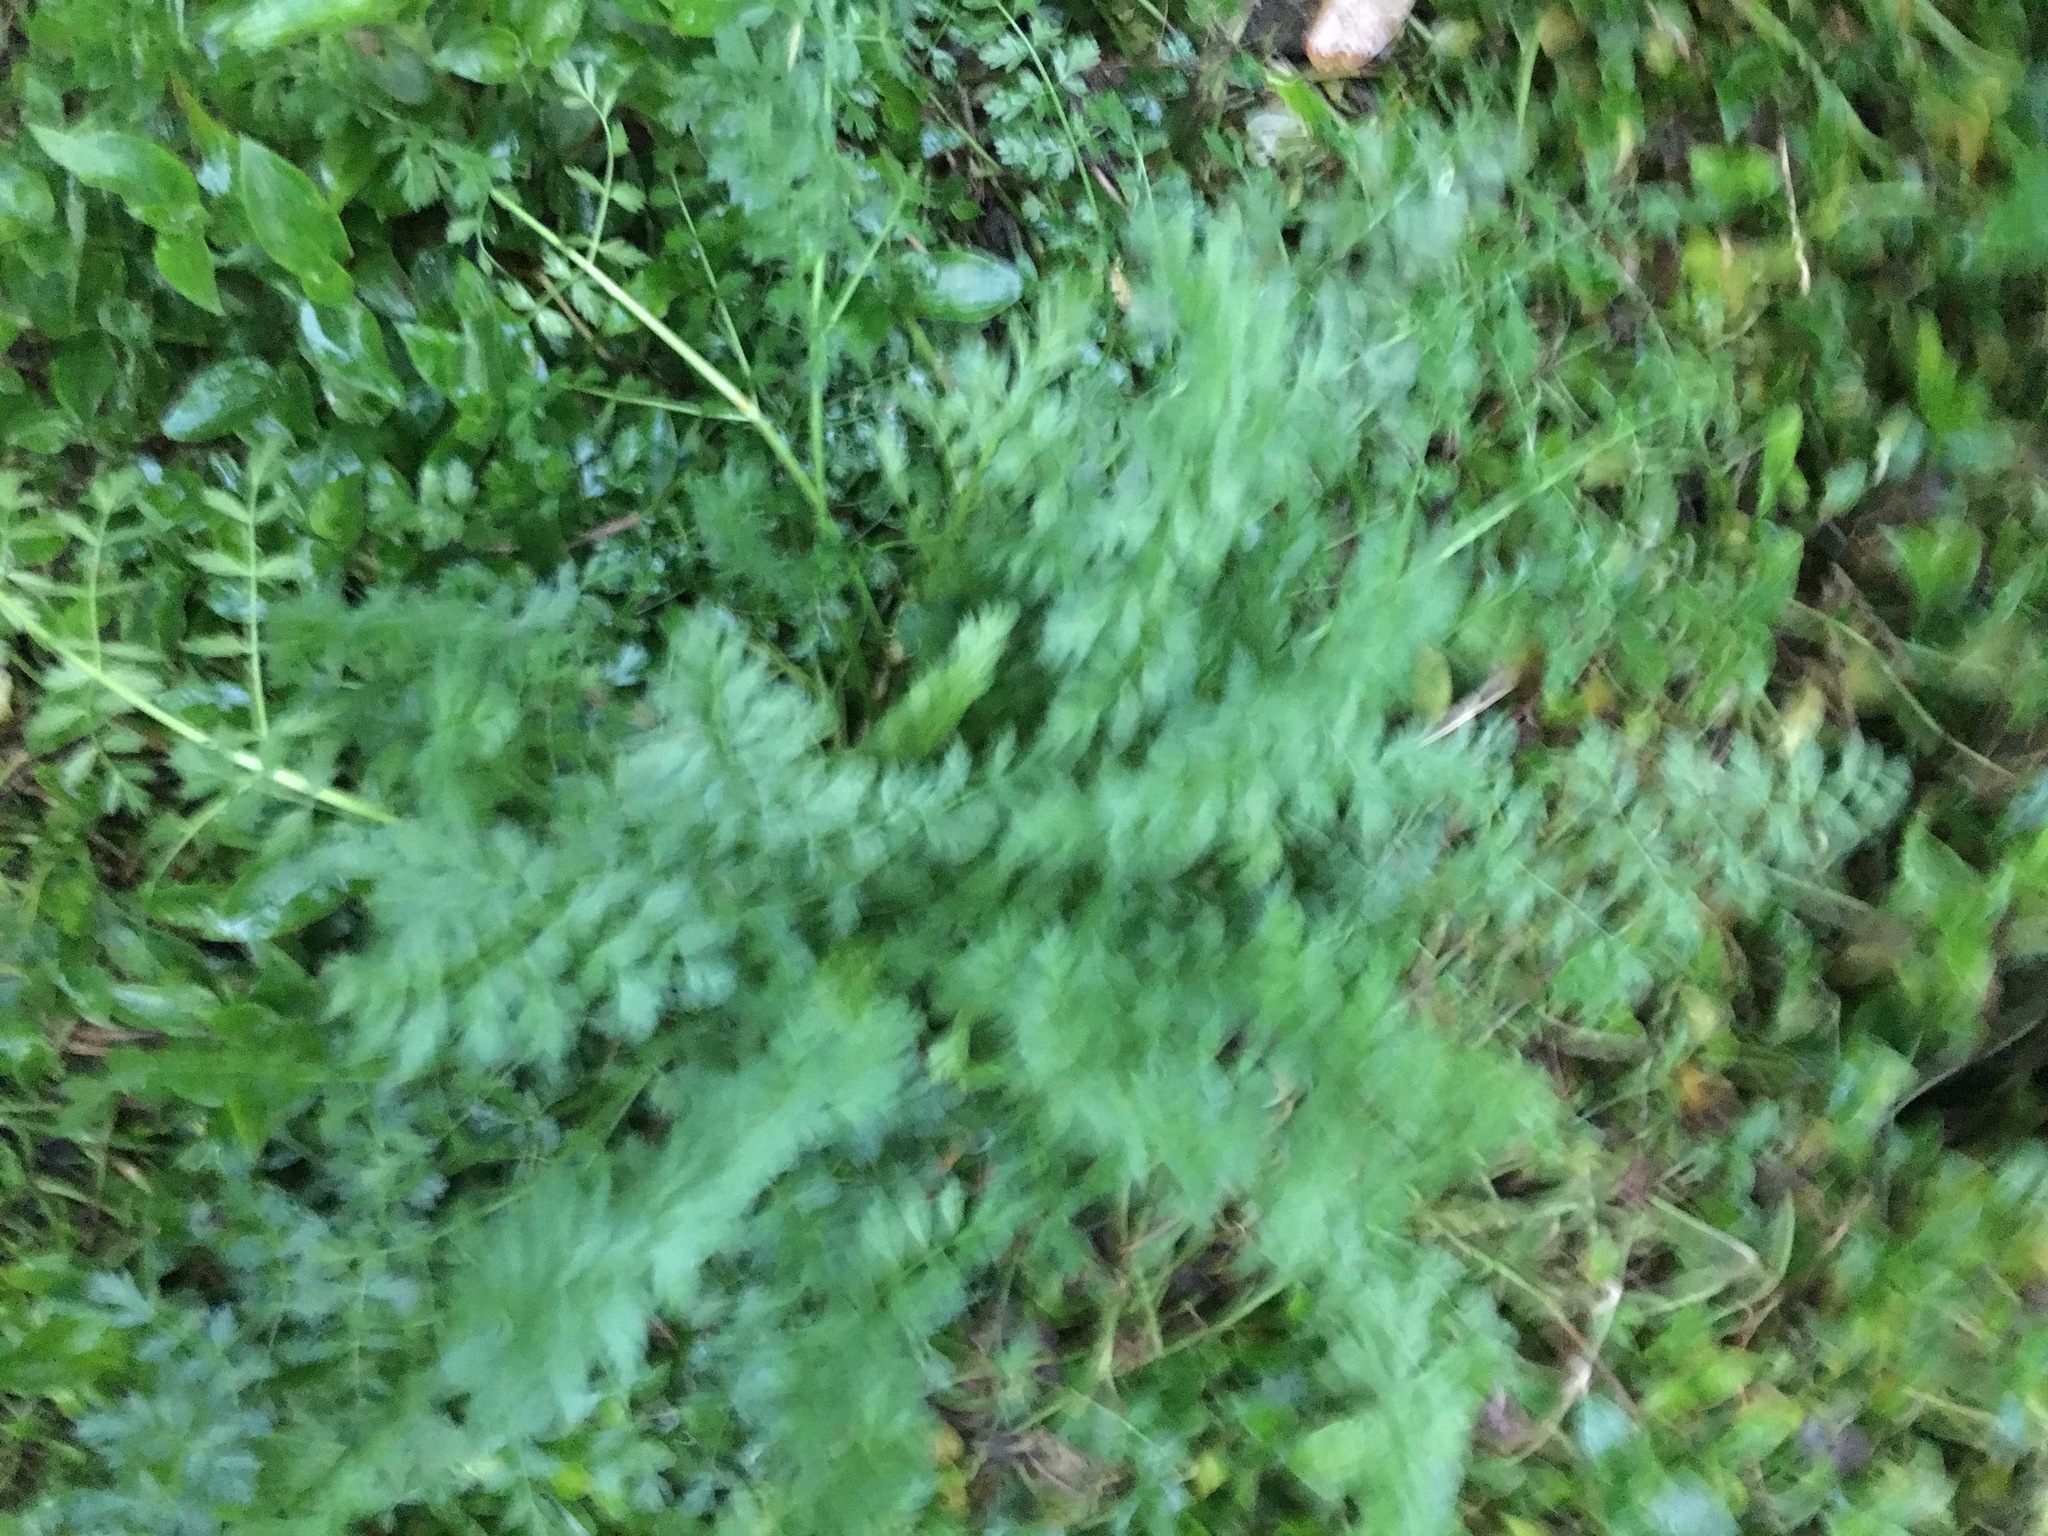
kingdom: Plantae
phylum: Tracheophyta
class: Magnoliopsida
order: Apiales
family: Apiaceae
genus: Daucus
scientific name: Daucus carota
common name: Wild carrot
